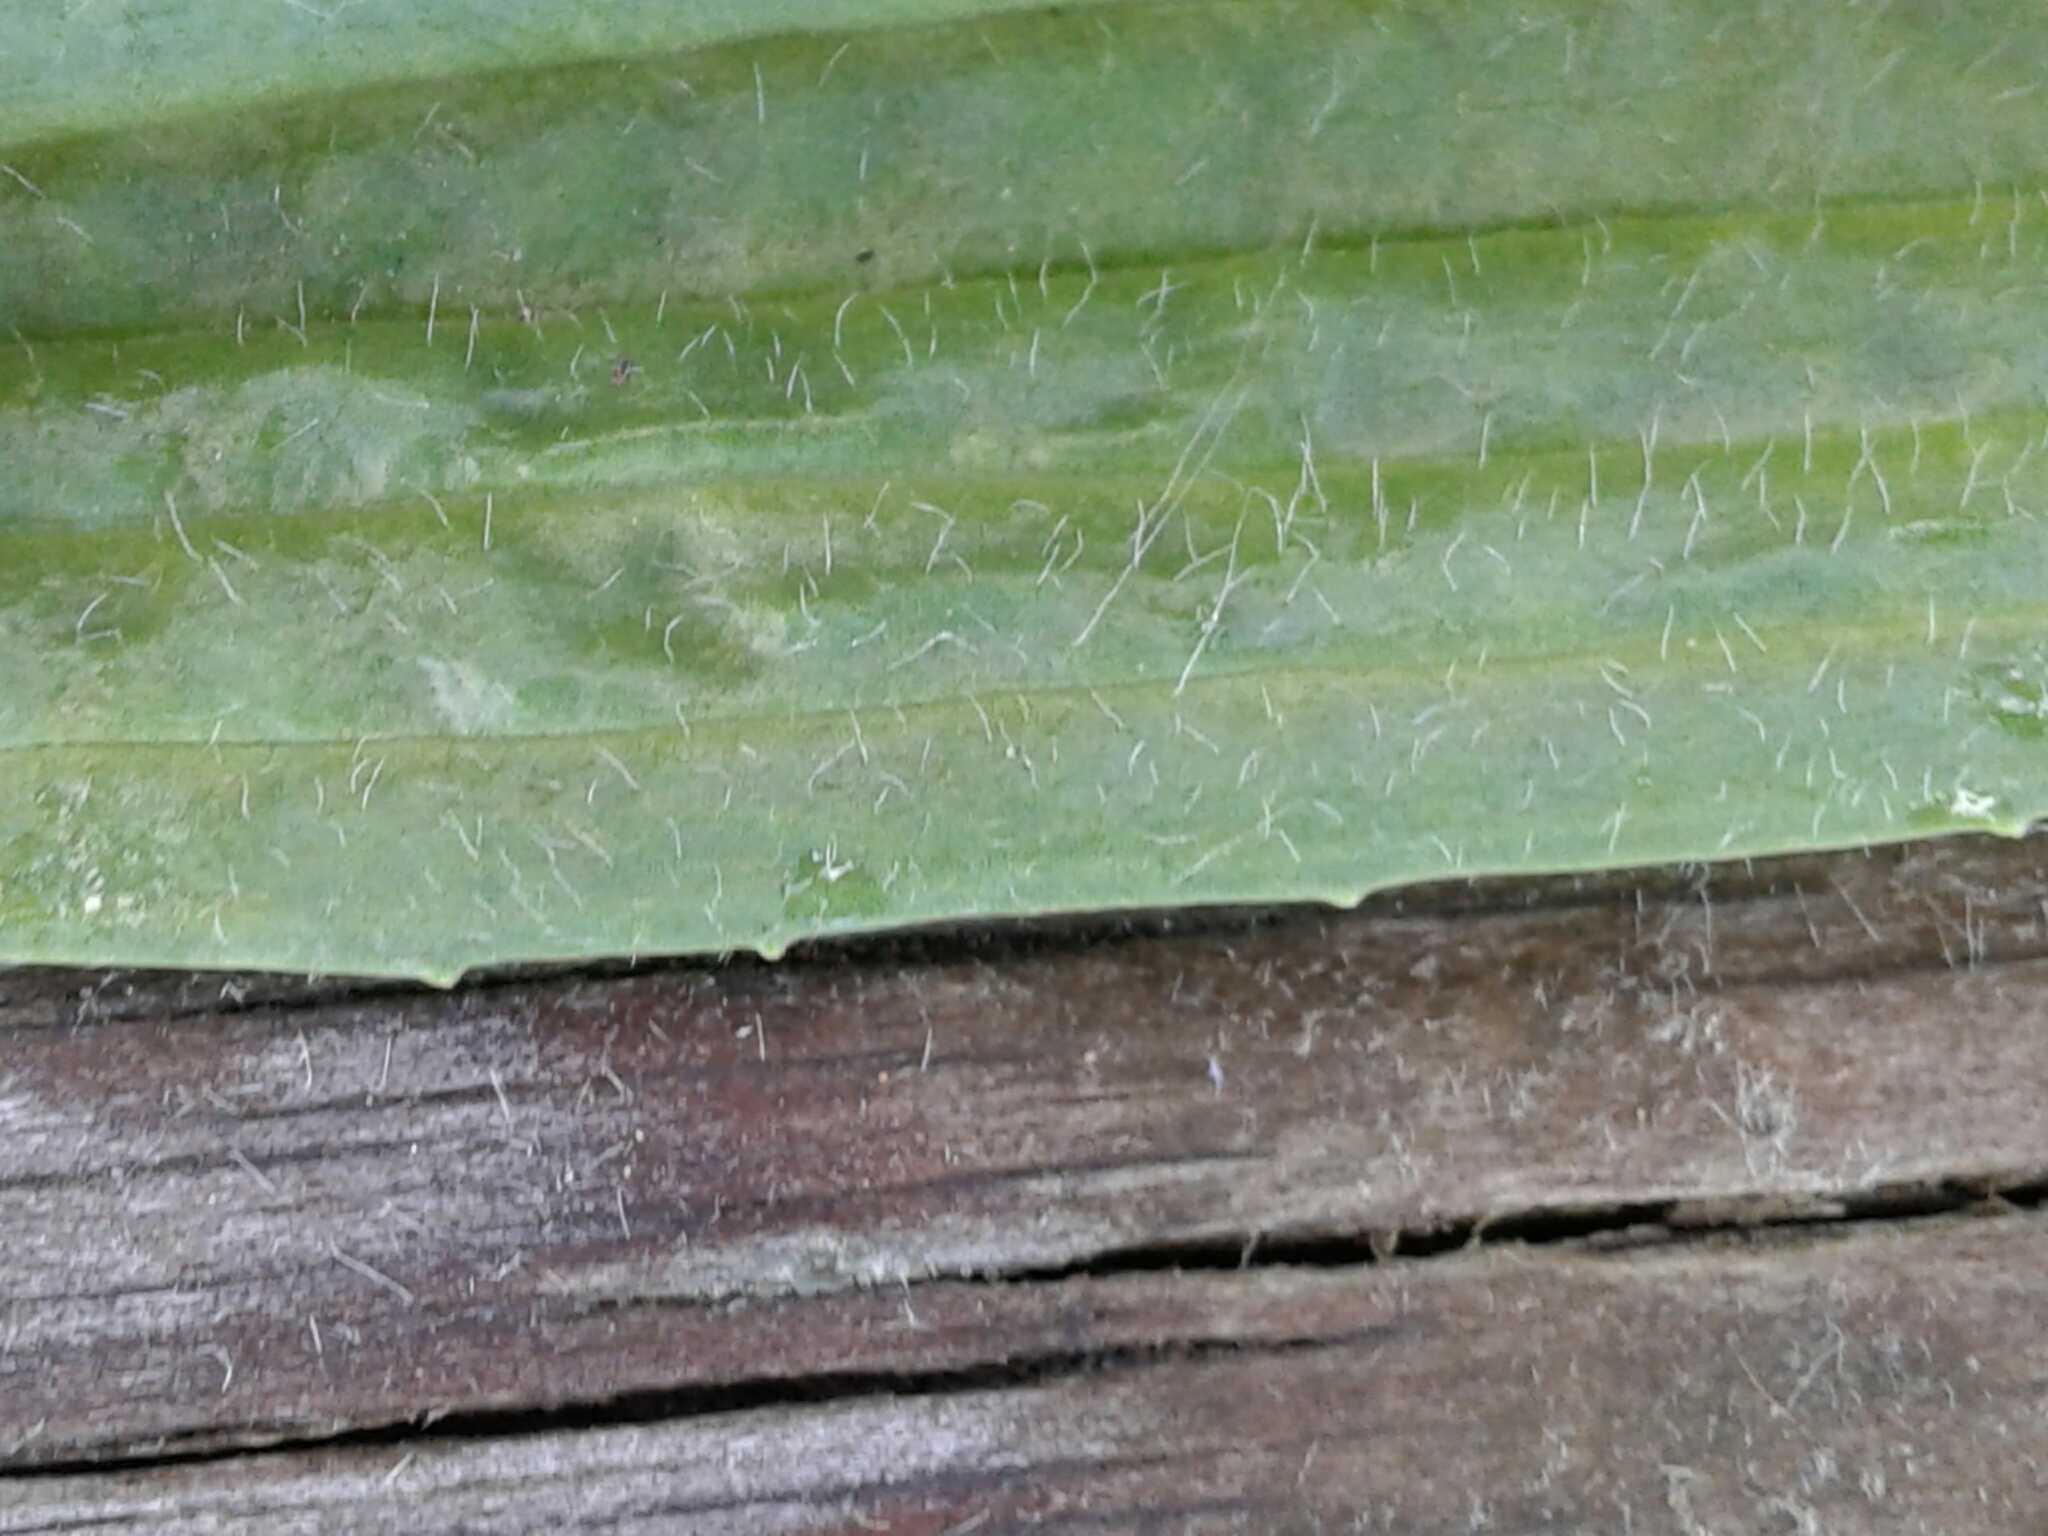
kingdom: Plantae
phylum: Tracheophyta
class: Magnoliopsida
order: Lamiales
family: Plantaginaceae
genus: Plantago
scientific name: Plantago lanceolata
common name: Ribwort plantain
